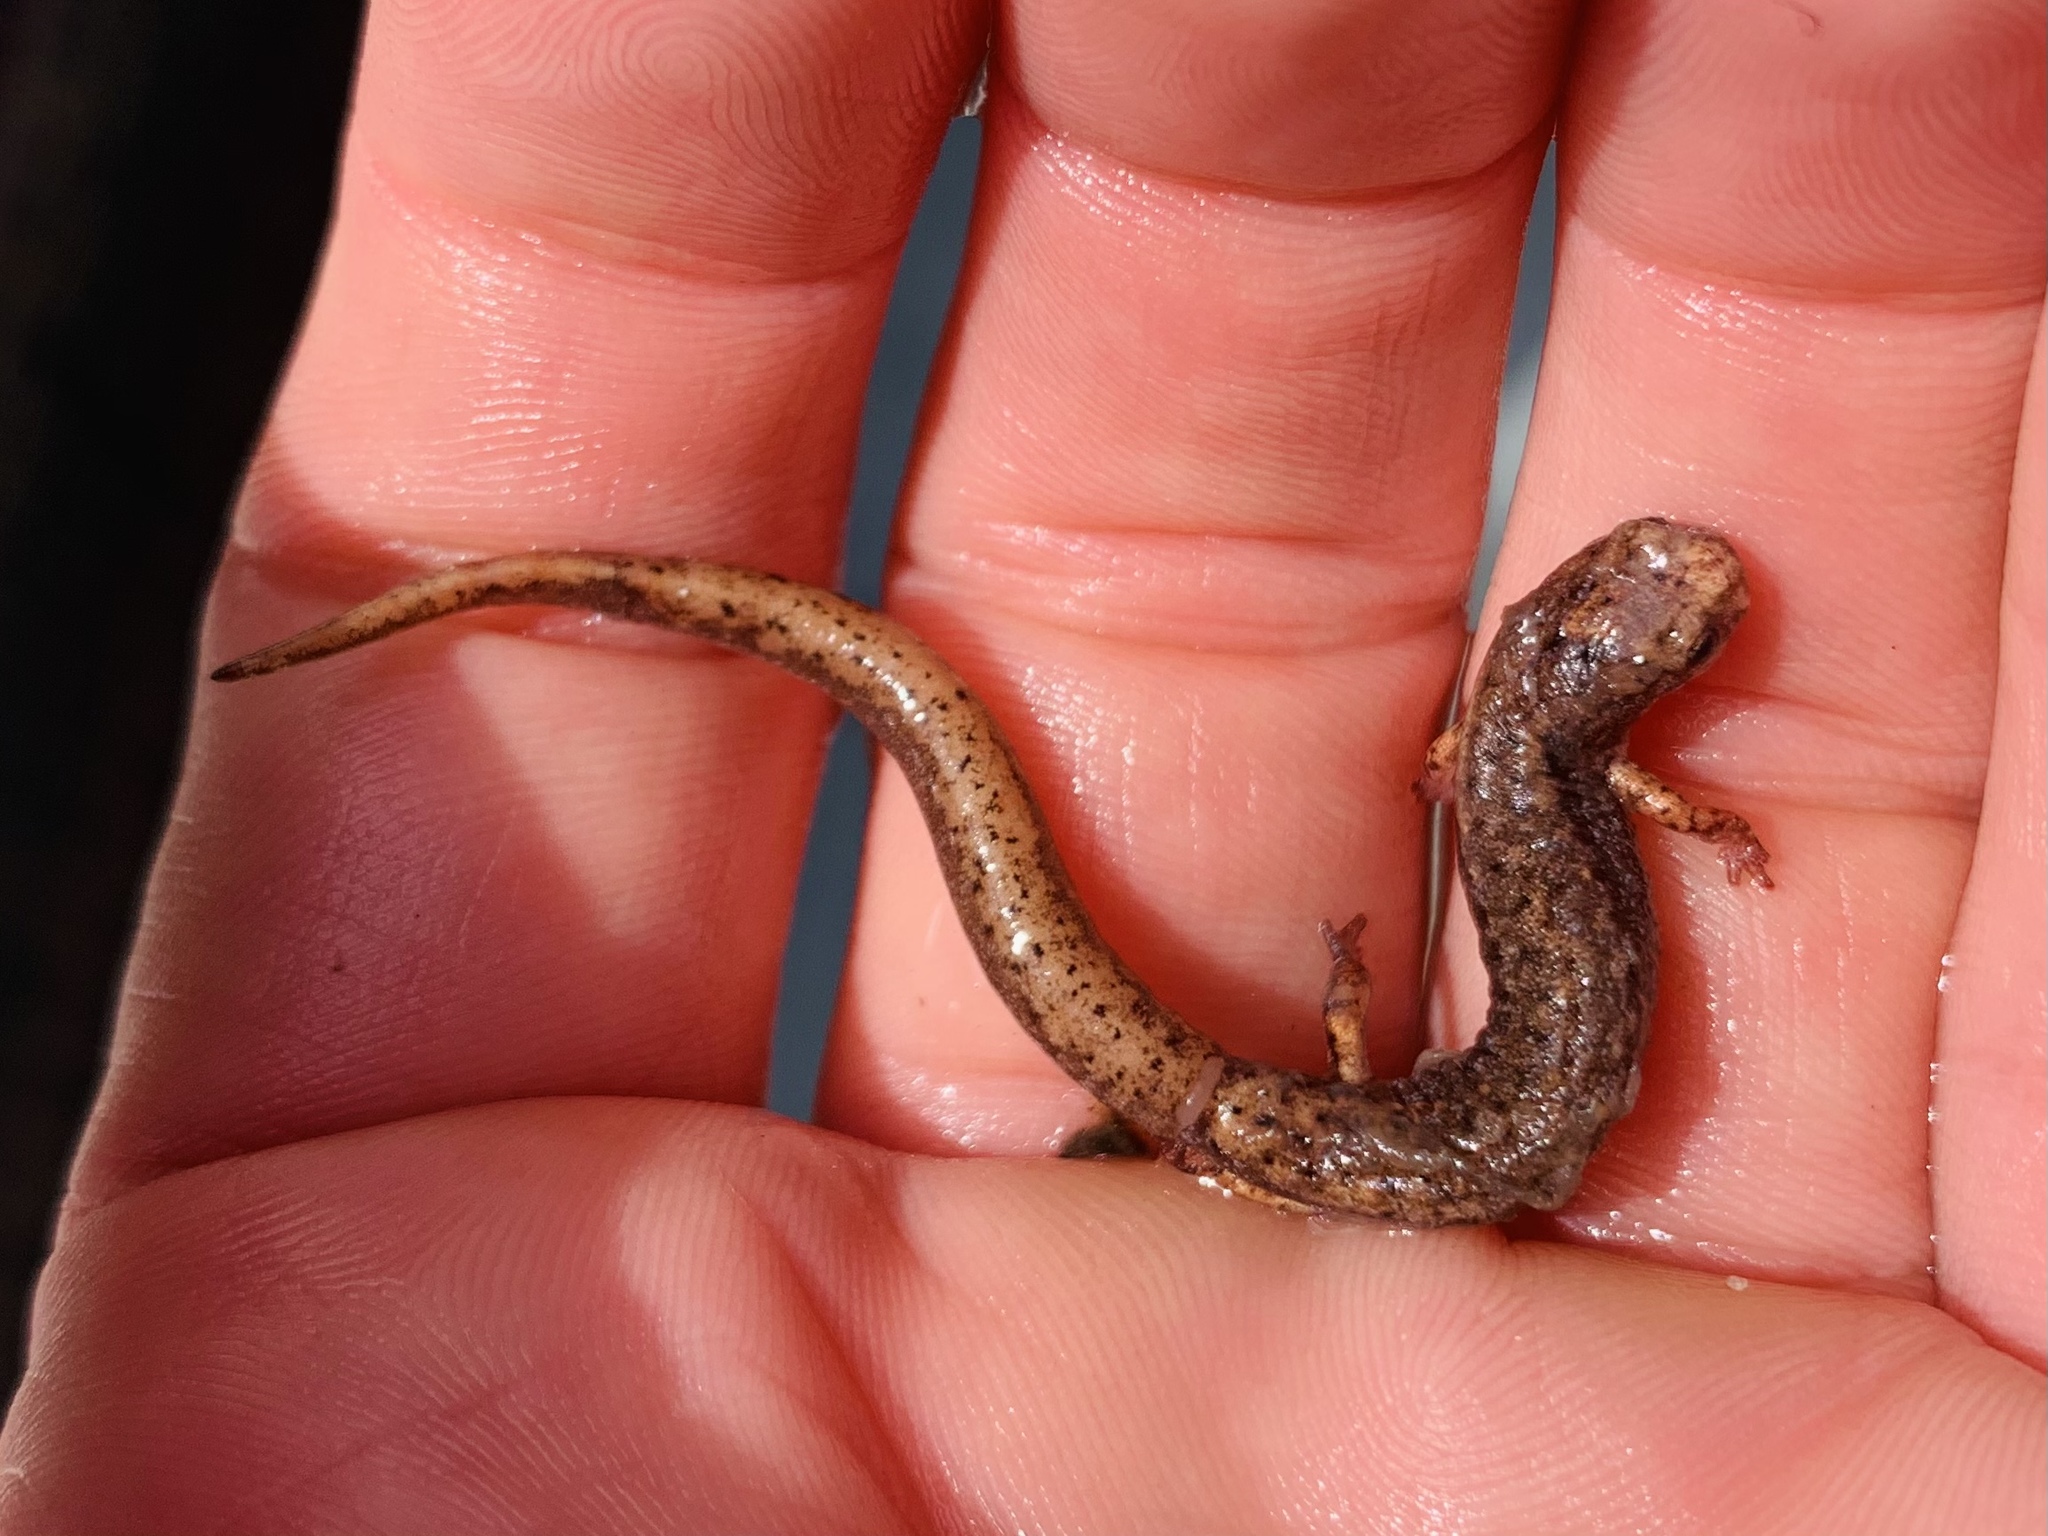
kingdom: Animalia
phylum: Chordata
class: Amphibia
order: Caudata
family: Plethodontidae
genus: Hemidactylium
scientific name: Hemidactylium scutatum
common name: Four-toed salamander
